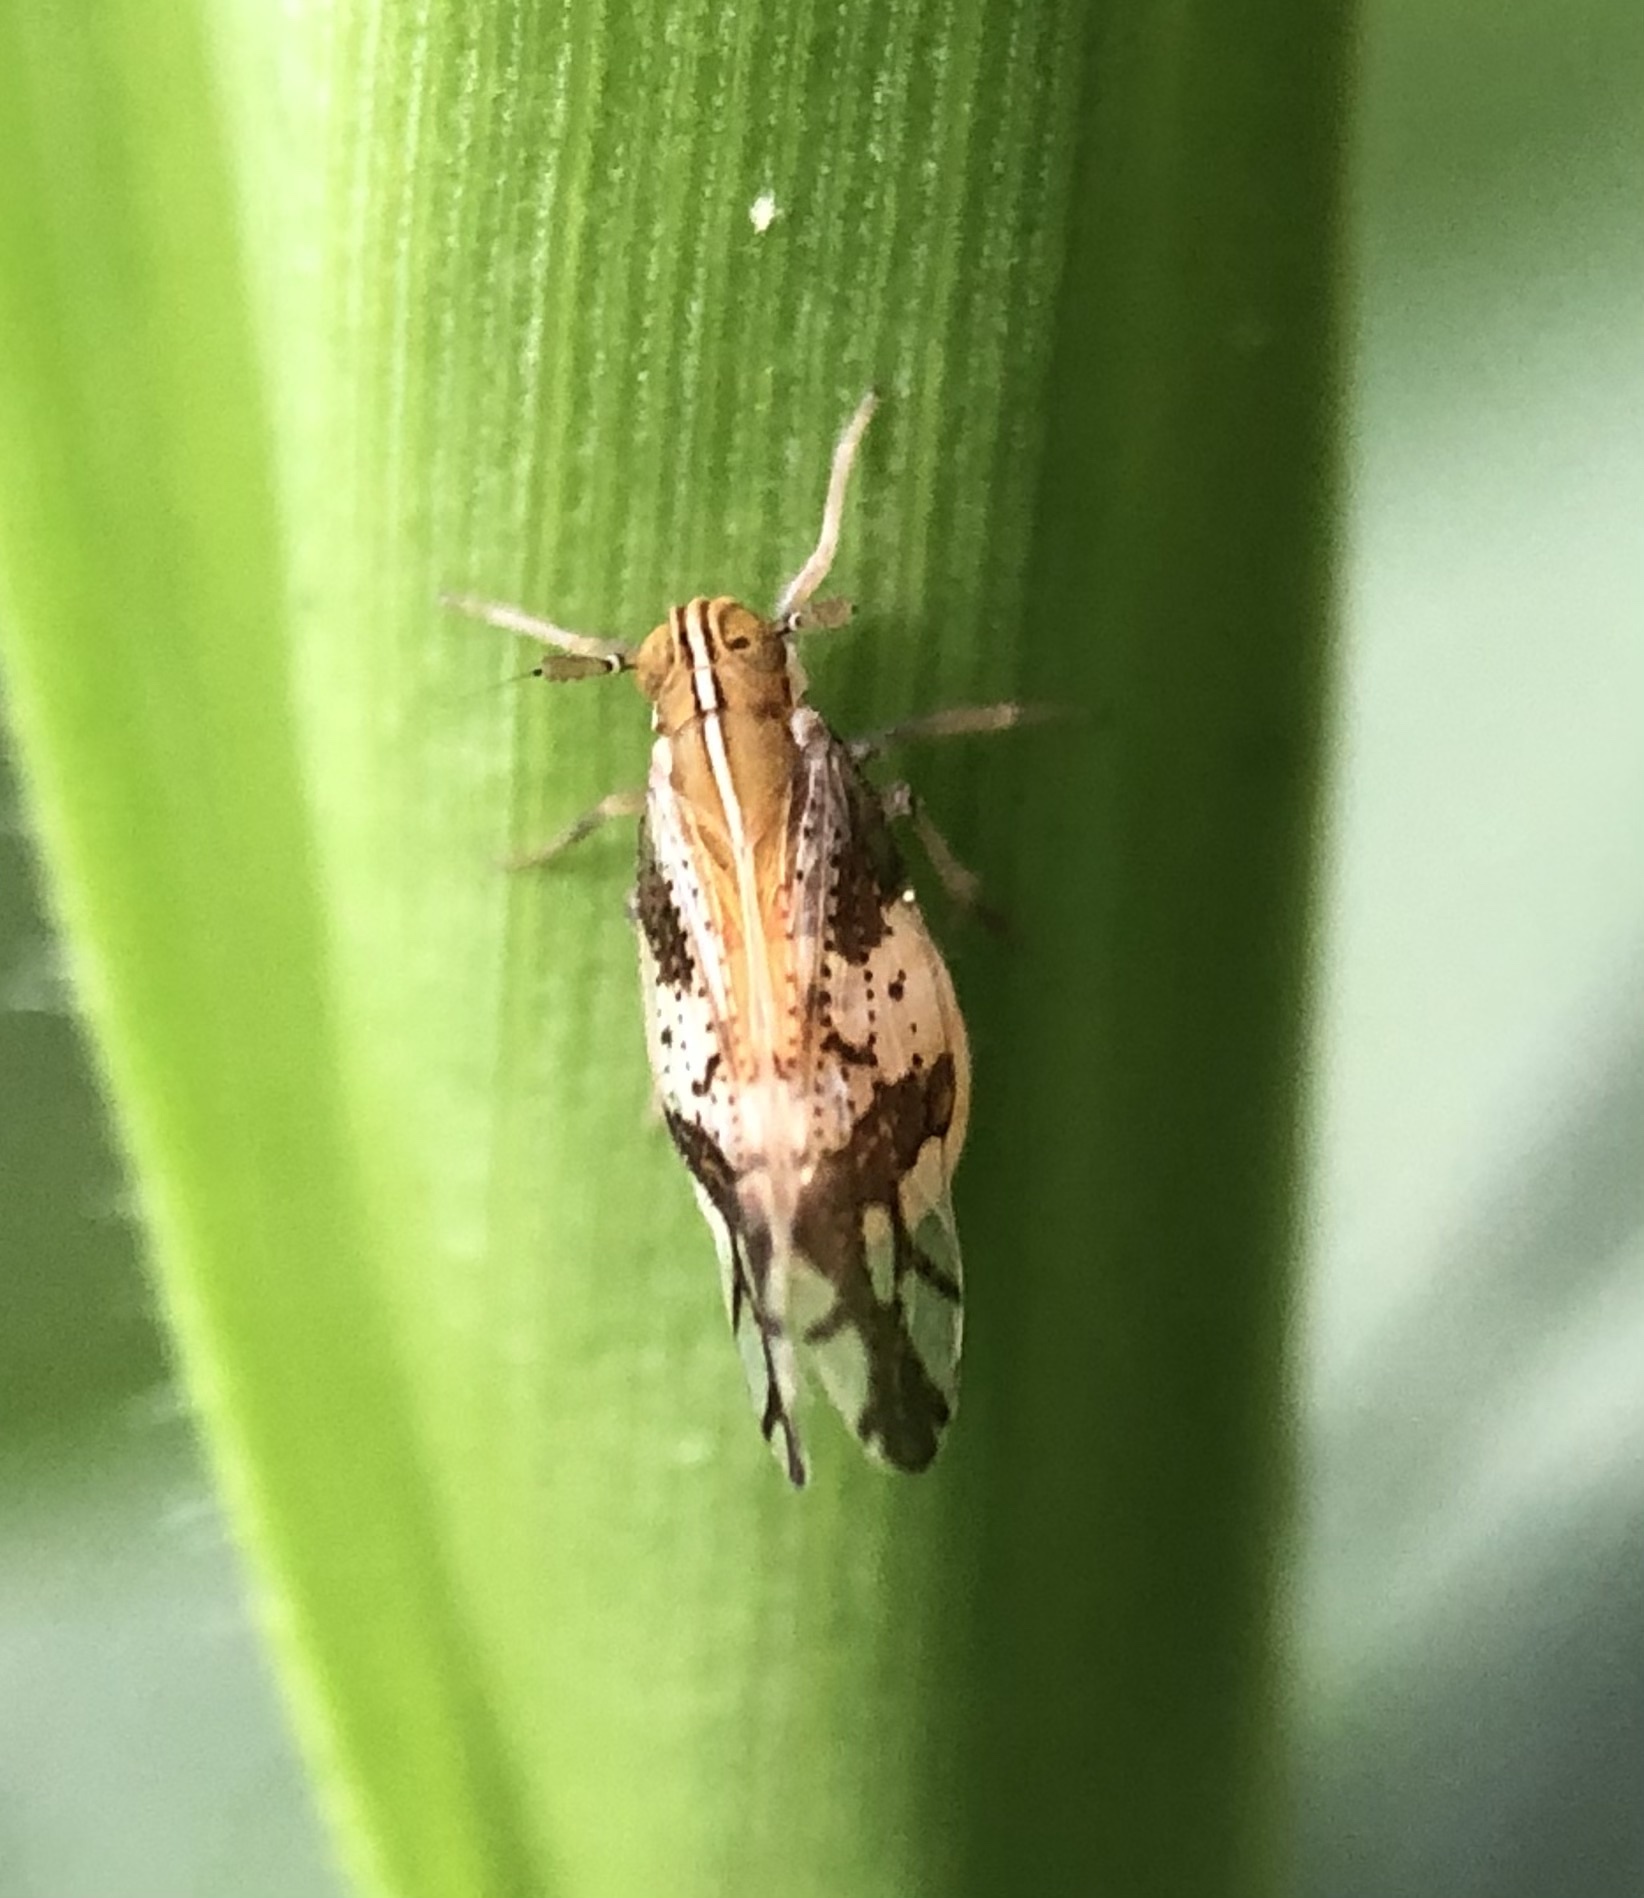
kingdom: Animalia
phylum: Arthropoda
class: Insecta
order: Hemiptera
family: Delphacidae
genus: Liburniella
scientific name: Liburniella ornata
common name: Ornate planthopper
